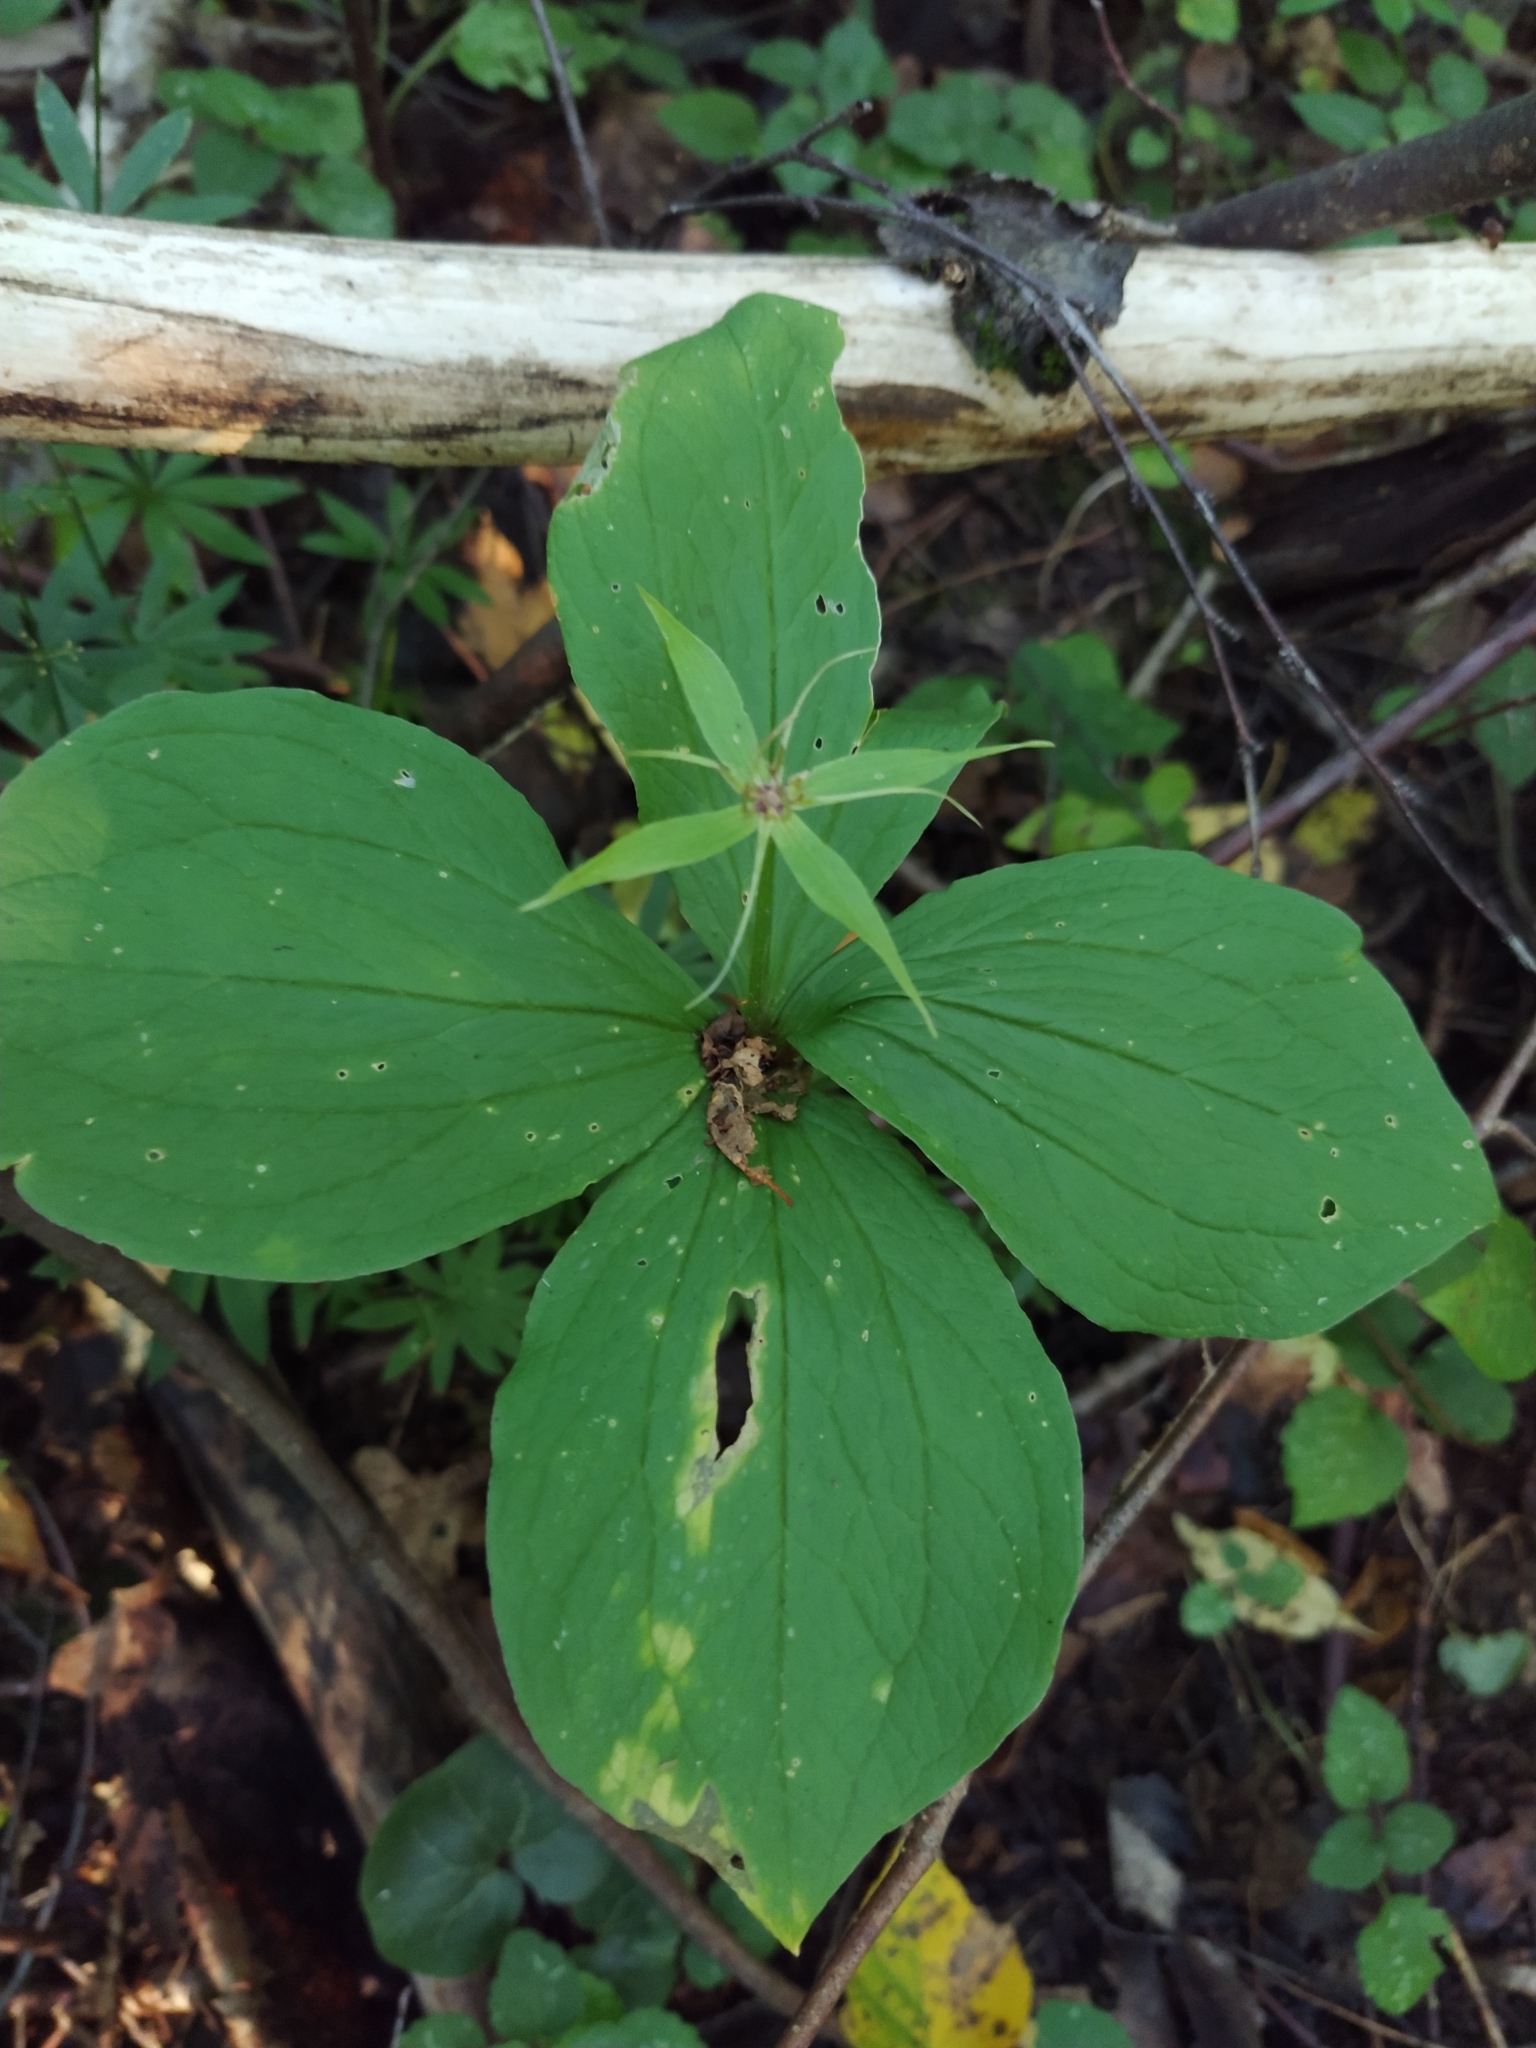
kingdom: Plantae
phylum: Tracheophyta
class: Liliopsida
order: Liliales
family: Melanthiaceae
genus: Paris
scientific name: Paris quadrifolia
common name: Herb-paris
